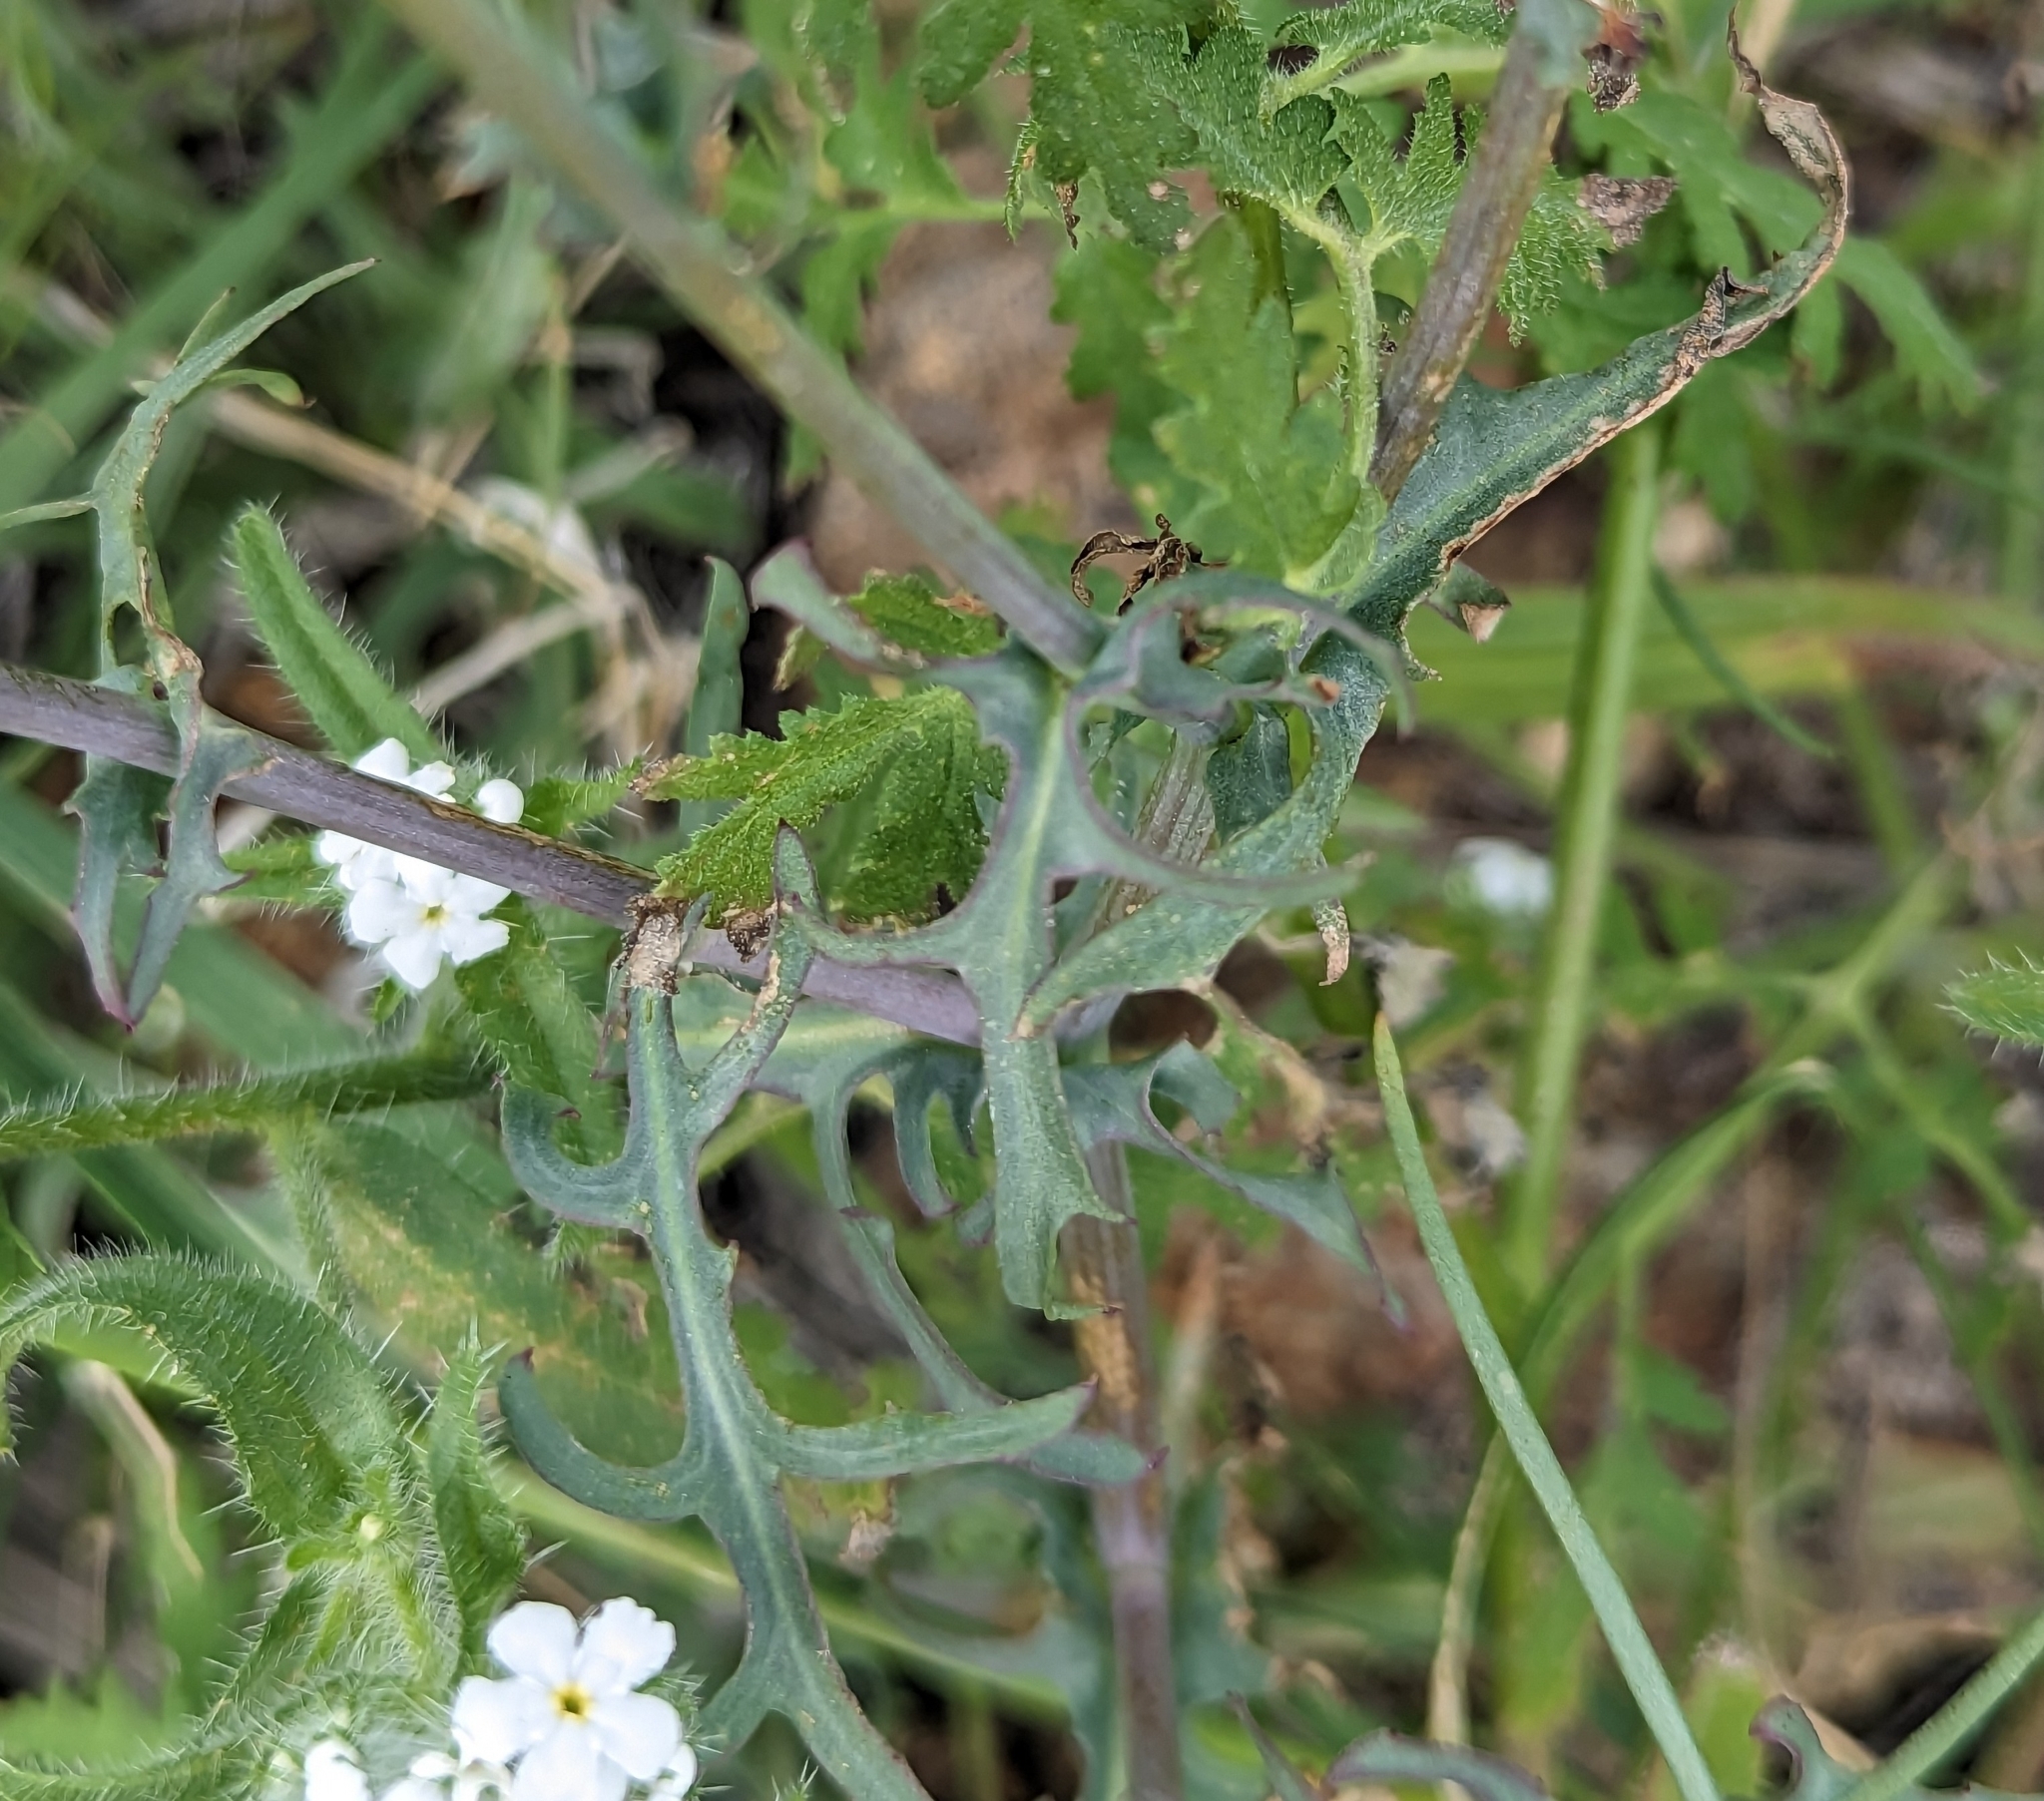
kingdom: Plantae
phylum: Tracheophyta
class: Magnoliopsida
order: Asterales
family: Asteraceae
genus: Rafinesquia
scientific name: Rafinesquia neomexicana
